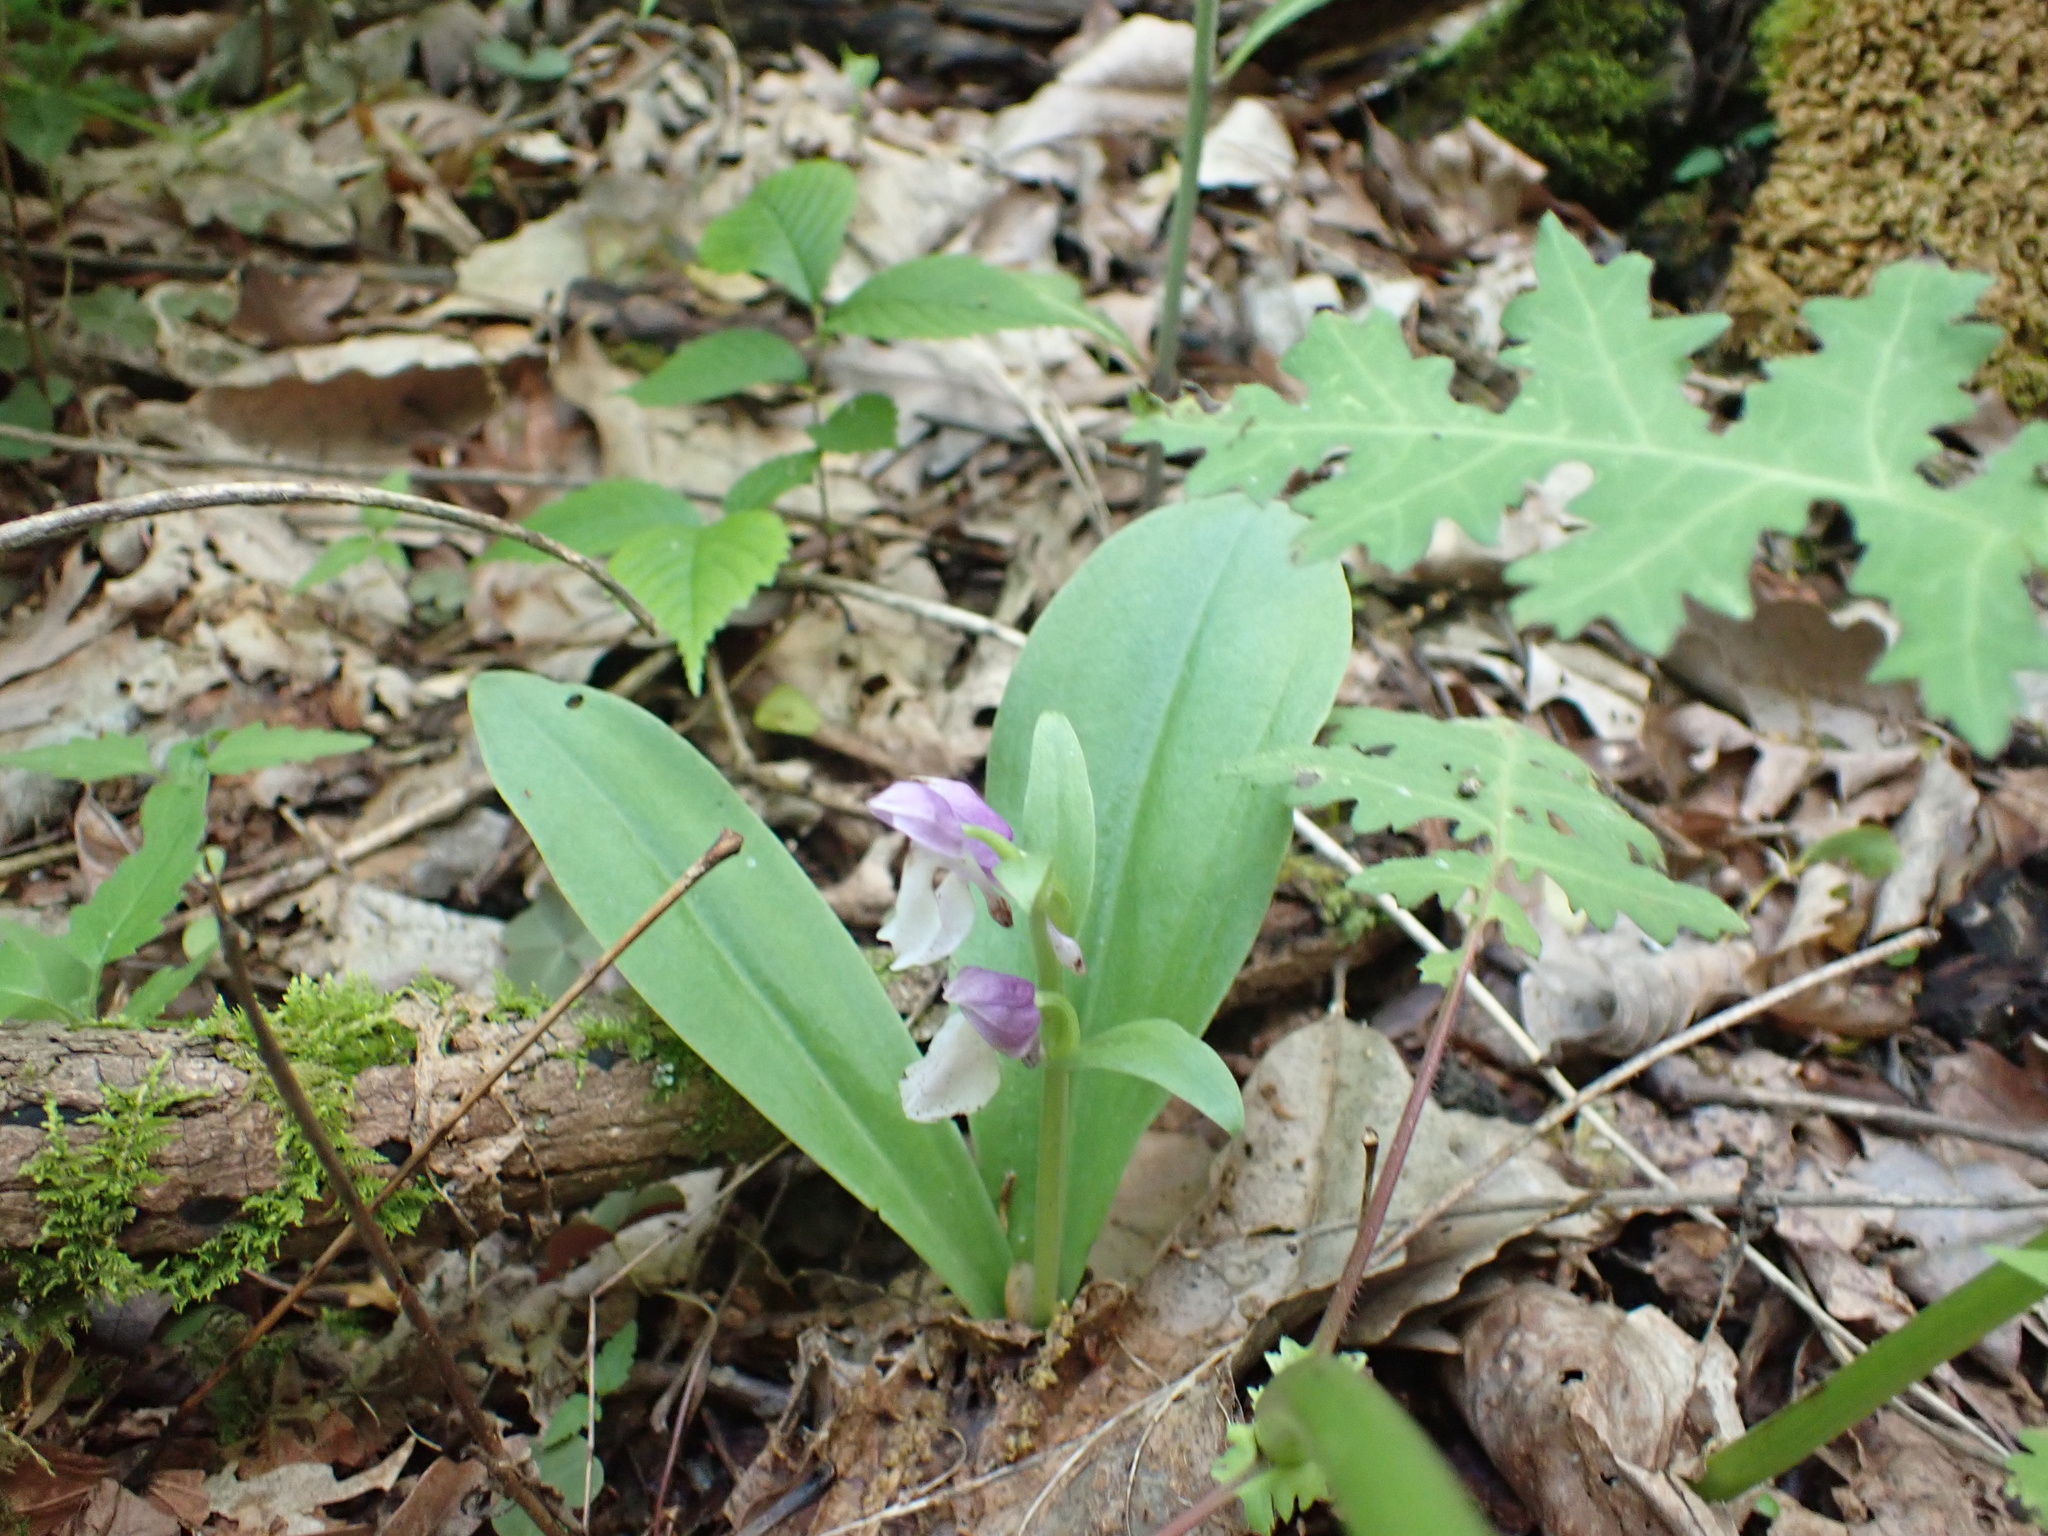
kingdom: Plantae
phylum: Tracheophyta
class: Liliopsida
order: Asparagales
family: Orchidaceae
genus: Galearis
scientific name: Galearis spectabilis
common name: Purple-hooded orchis
